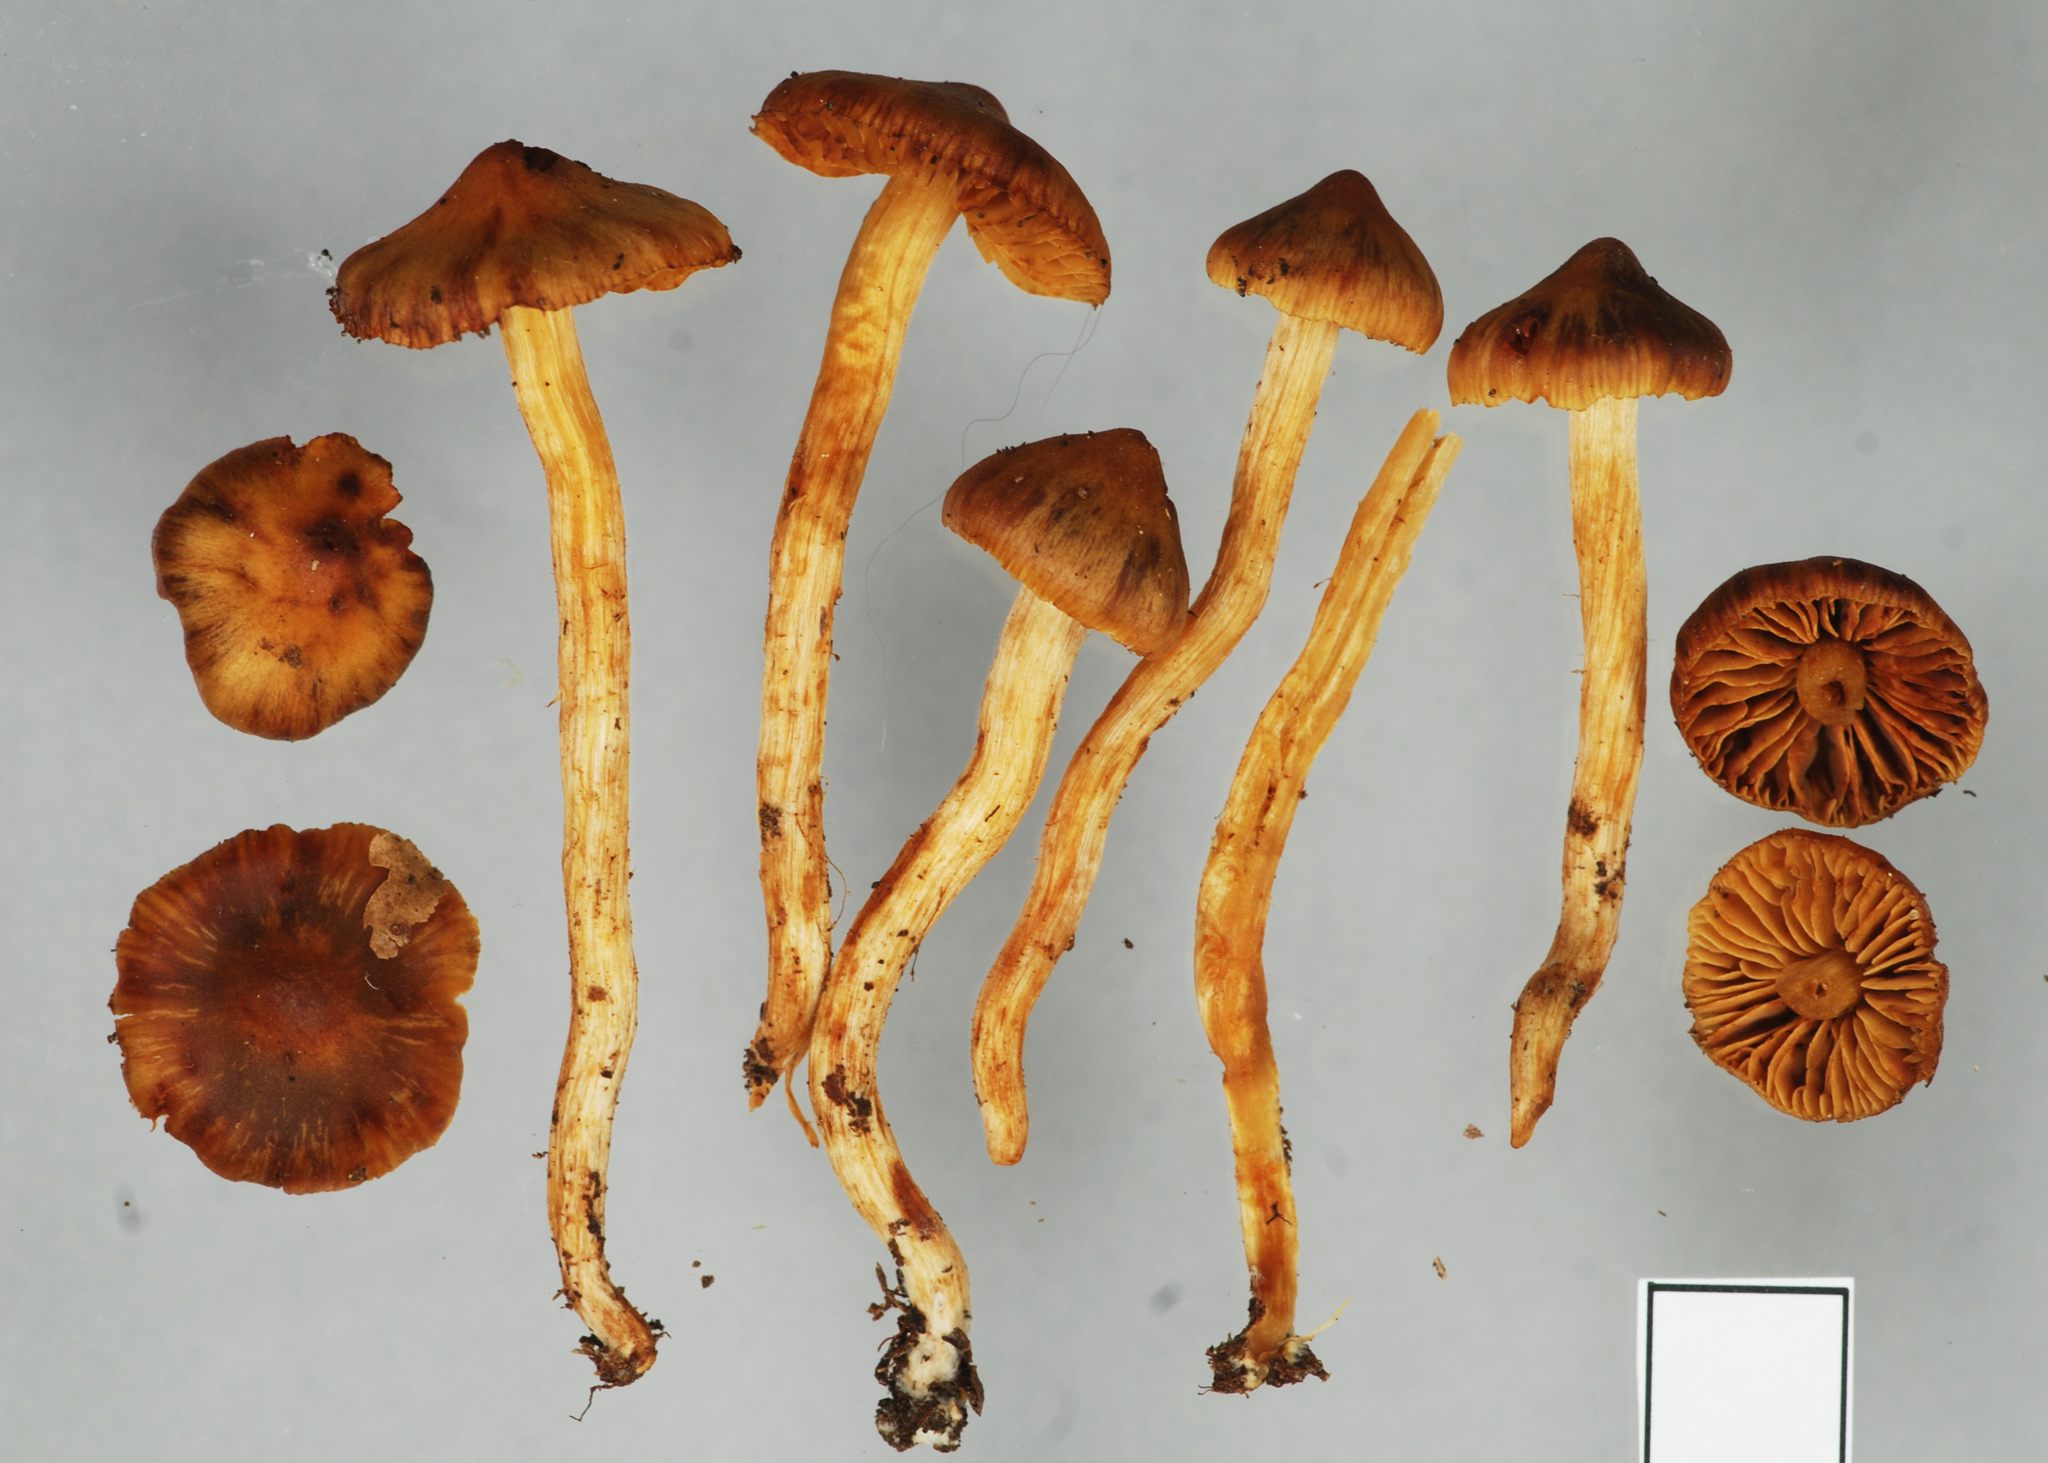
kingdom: Fungi
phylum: Basidiomycota
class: Agaricomycetes
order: Agaricales
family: Cortinariaceae
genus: Aureonarius
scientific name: Aureonarius viscilaetus
